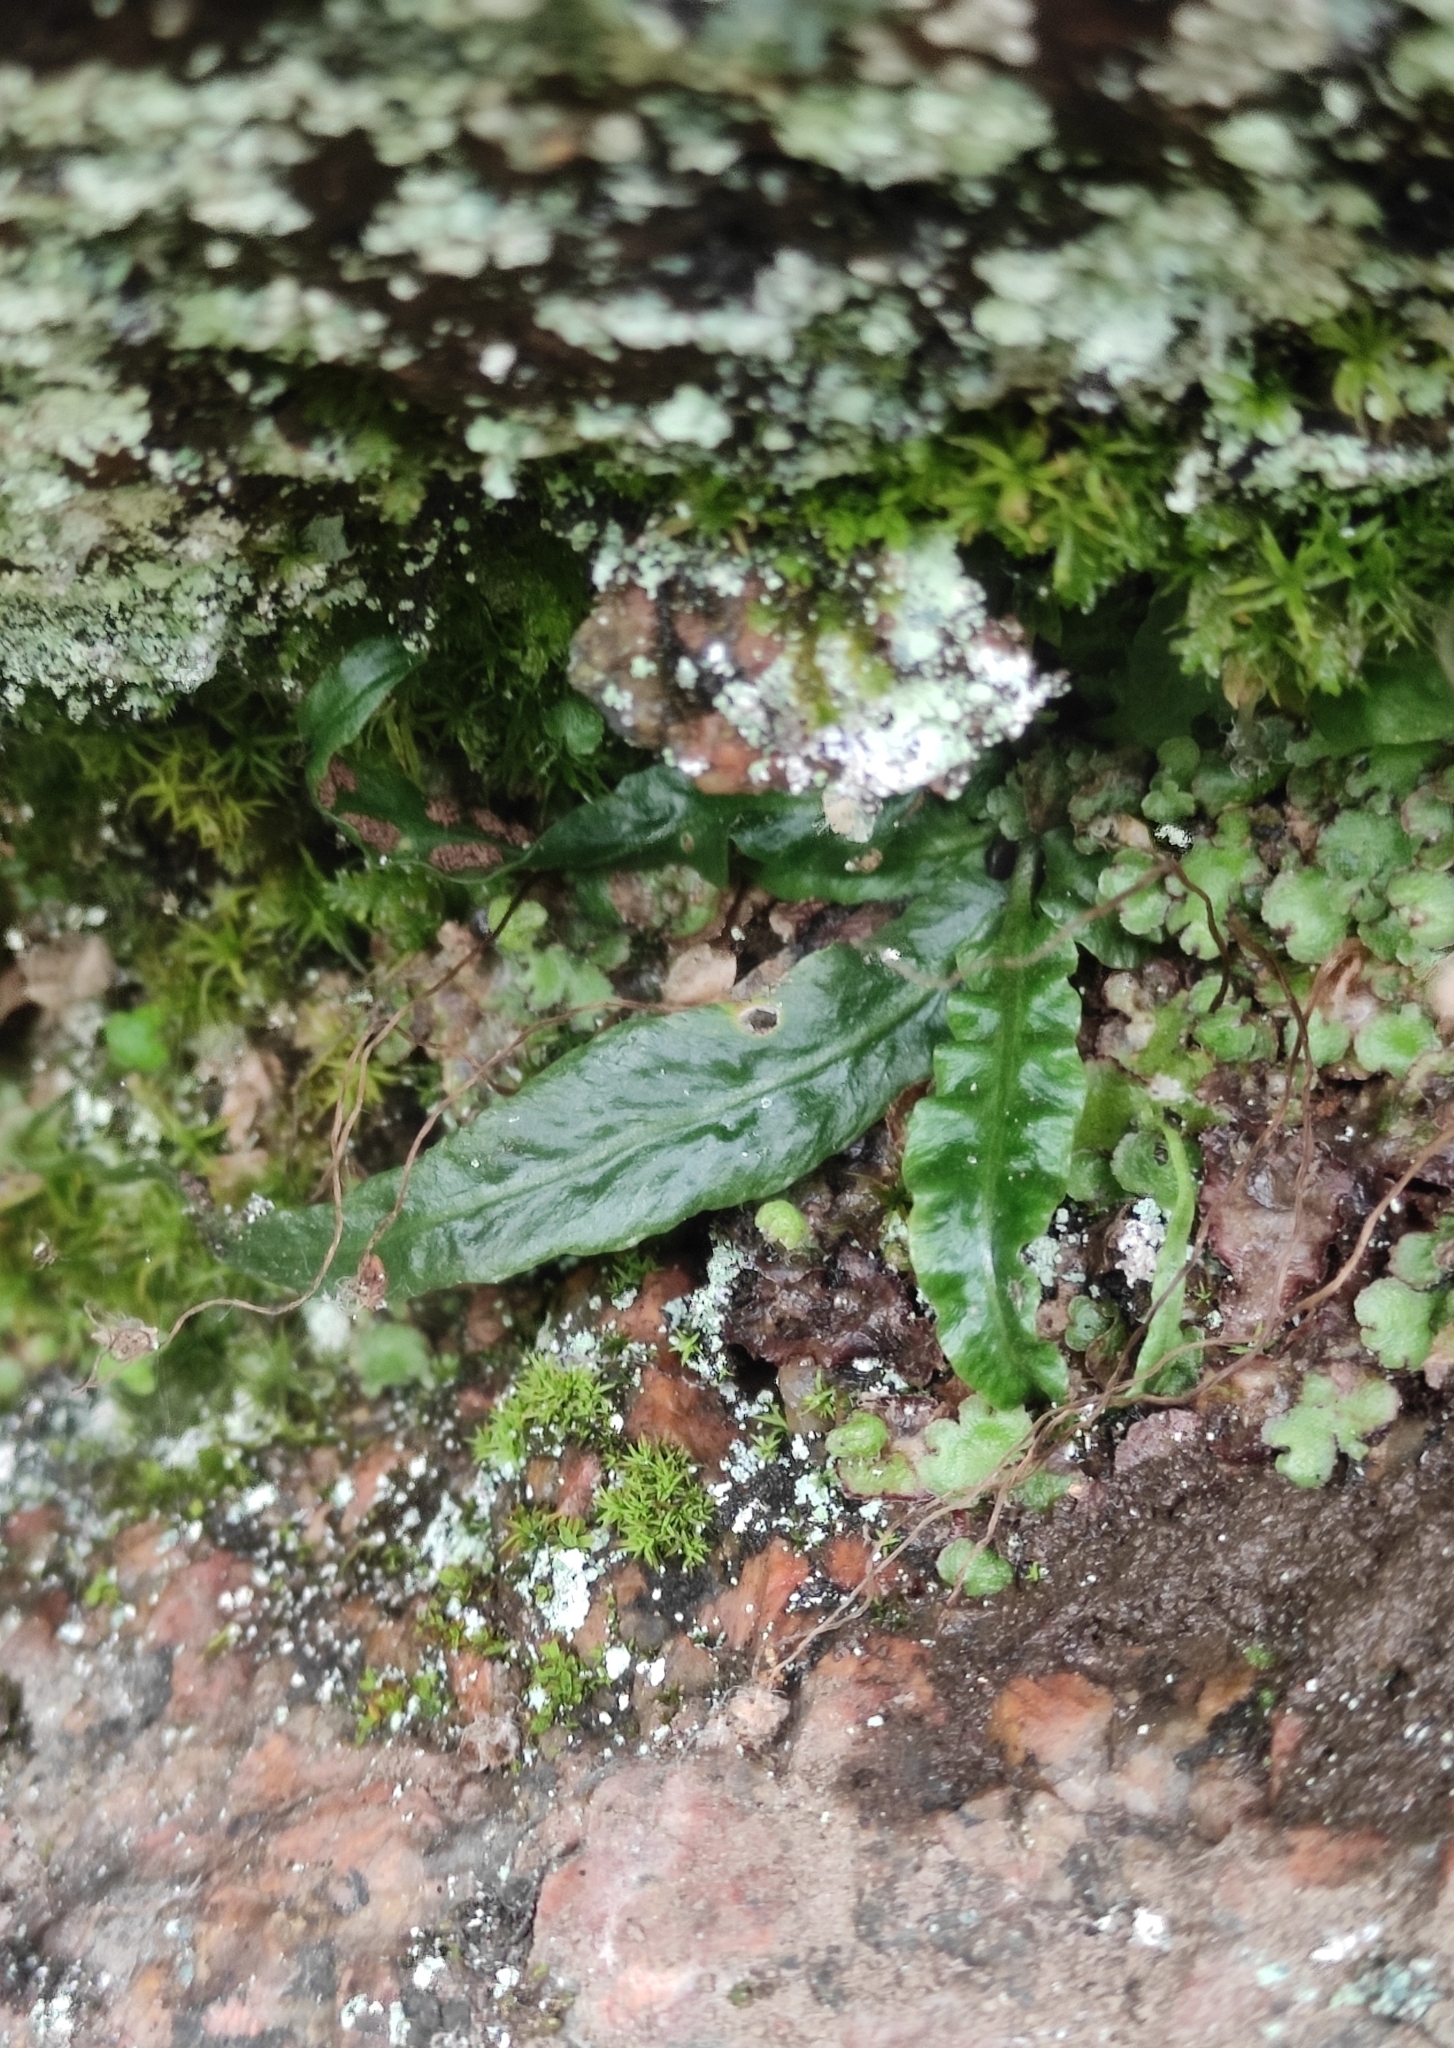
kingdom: Plantae
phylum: Tracheophyta
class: Polypodiopsida
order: Polypodiales
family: Aspleniaceae
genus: Asplenium
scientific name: Asplenium ruprechtii
